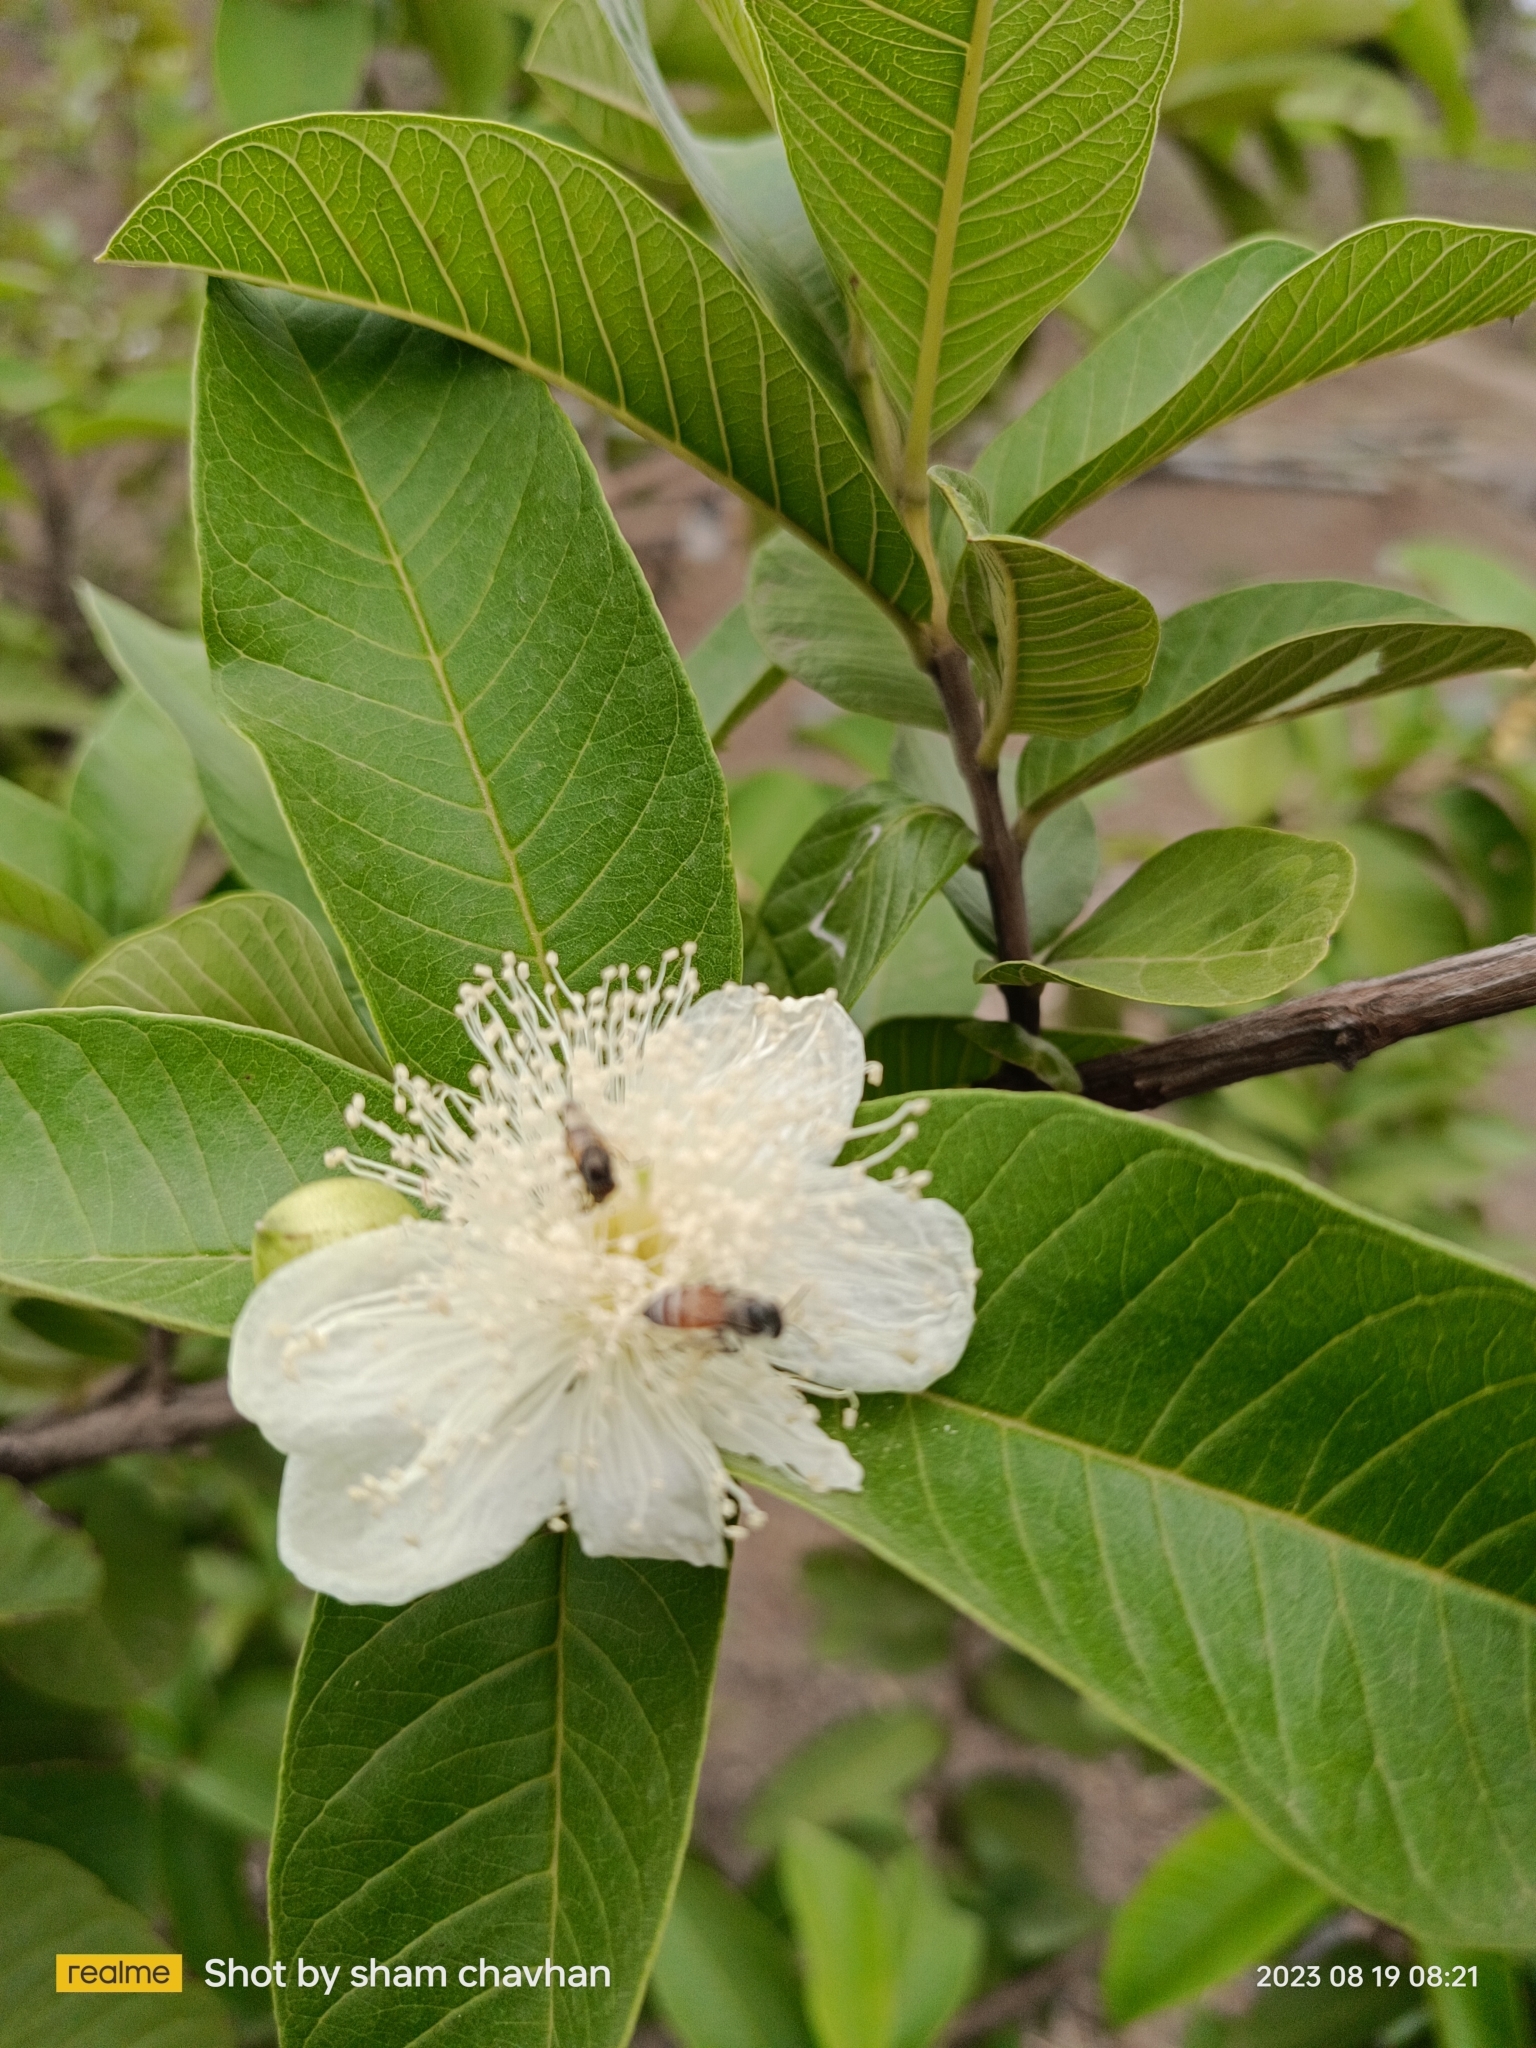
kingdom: Plantae
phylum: Tracheophyta
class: Magnoliopsida
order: Myrtales
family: Myrtaceae
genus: Psidium
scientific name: Psidium guajava
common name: Guava
